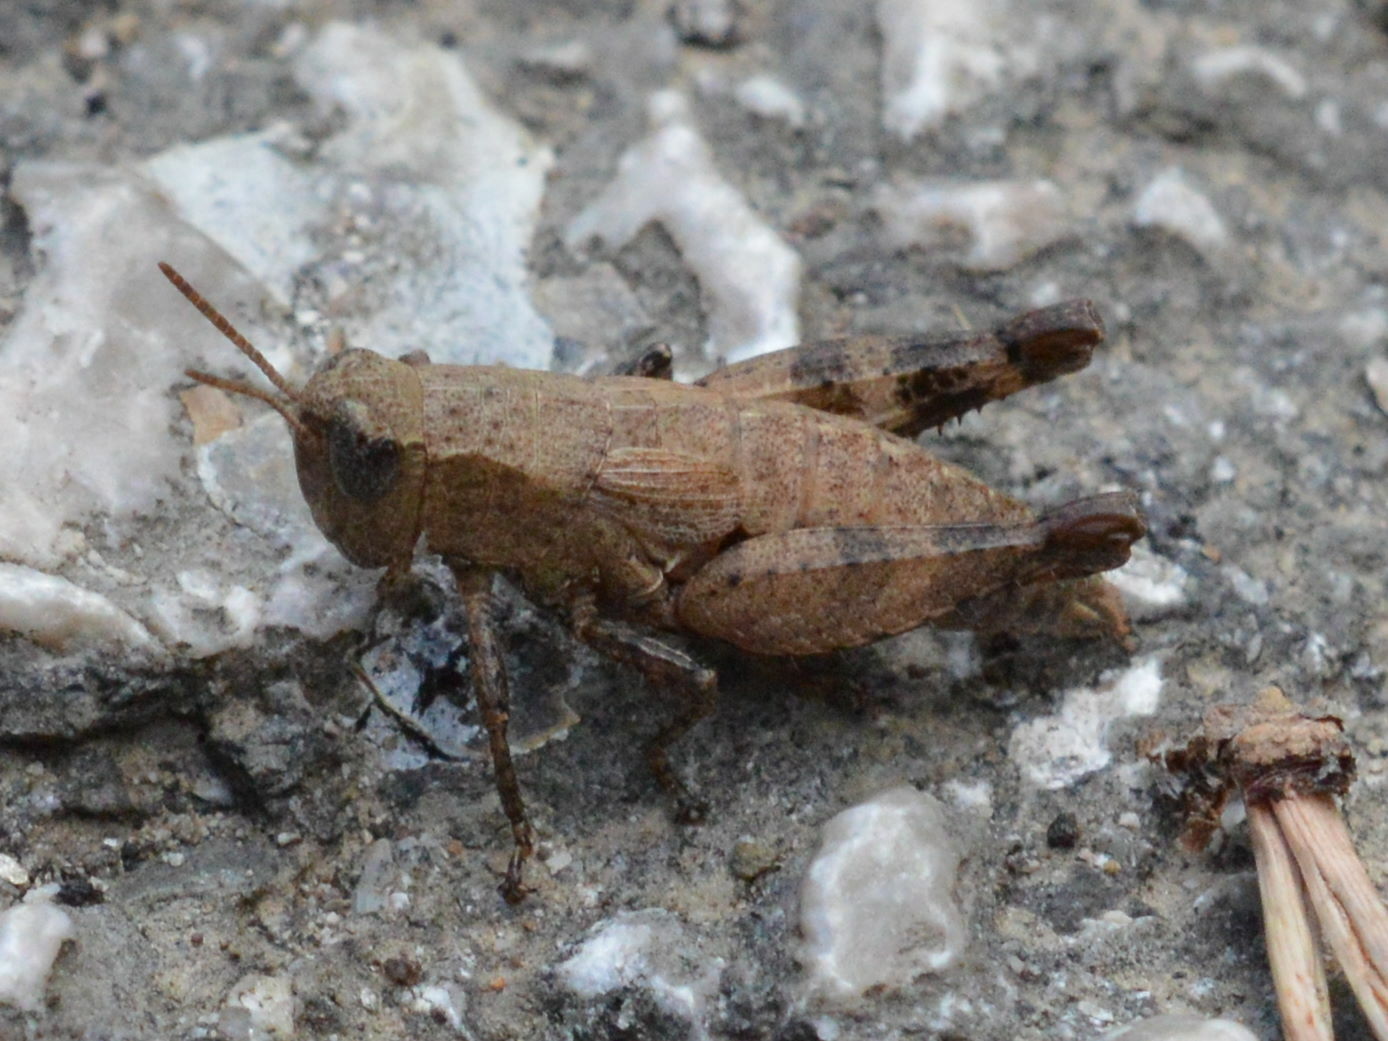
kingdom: Animalia
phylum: Arthropoda
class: Insecta
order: Orthoptera
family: Acrididae
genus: Pezotettix
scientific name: Pezotettix giornae
